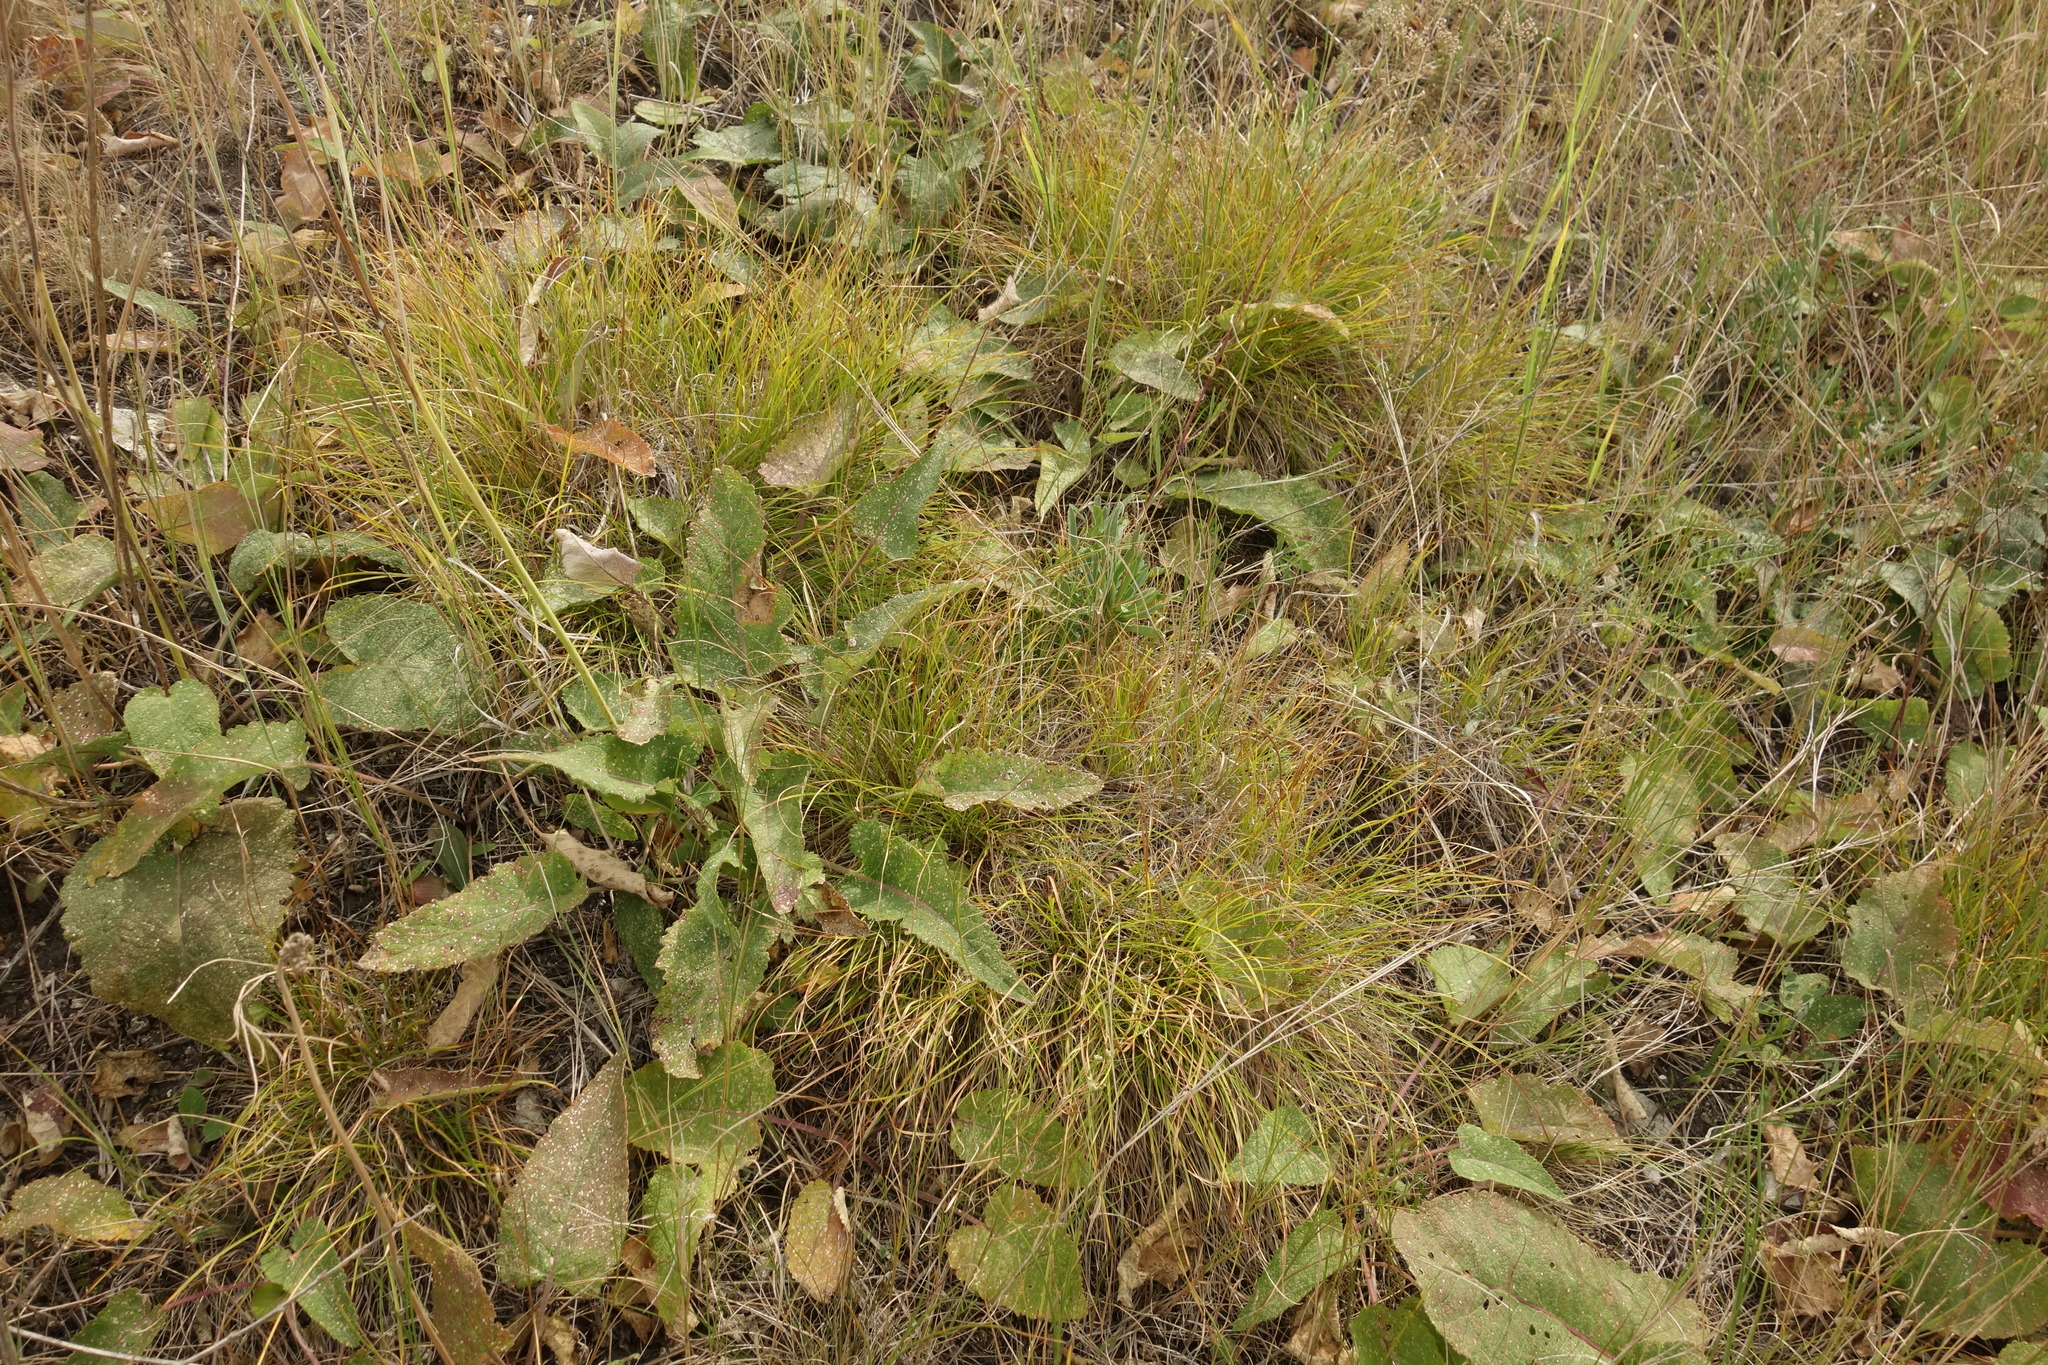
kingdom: Plantae
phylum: Tracheophyta
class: Liliopsida
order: Poales
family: Cyperaceae
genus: Carex
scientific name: Carex humilis
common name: Dwarf sedge
